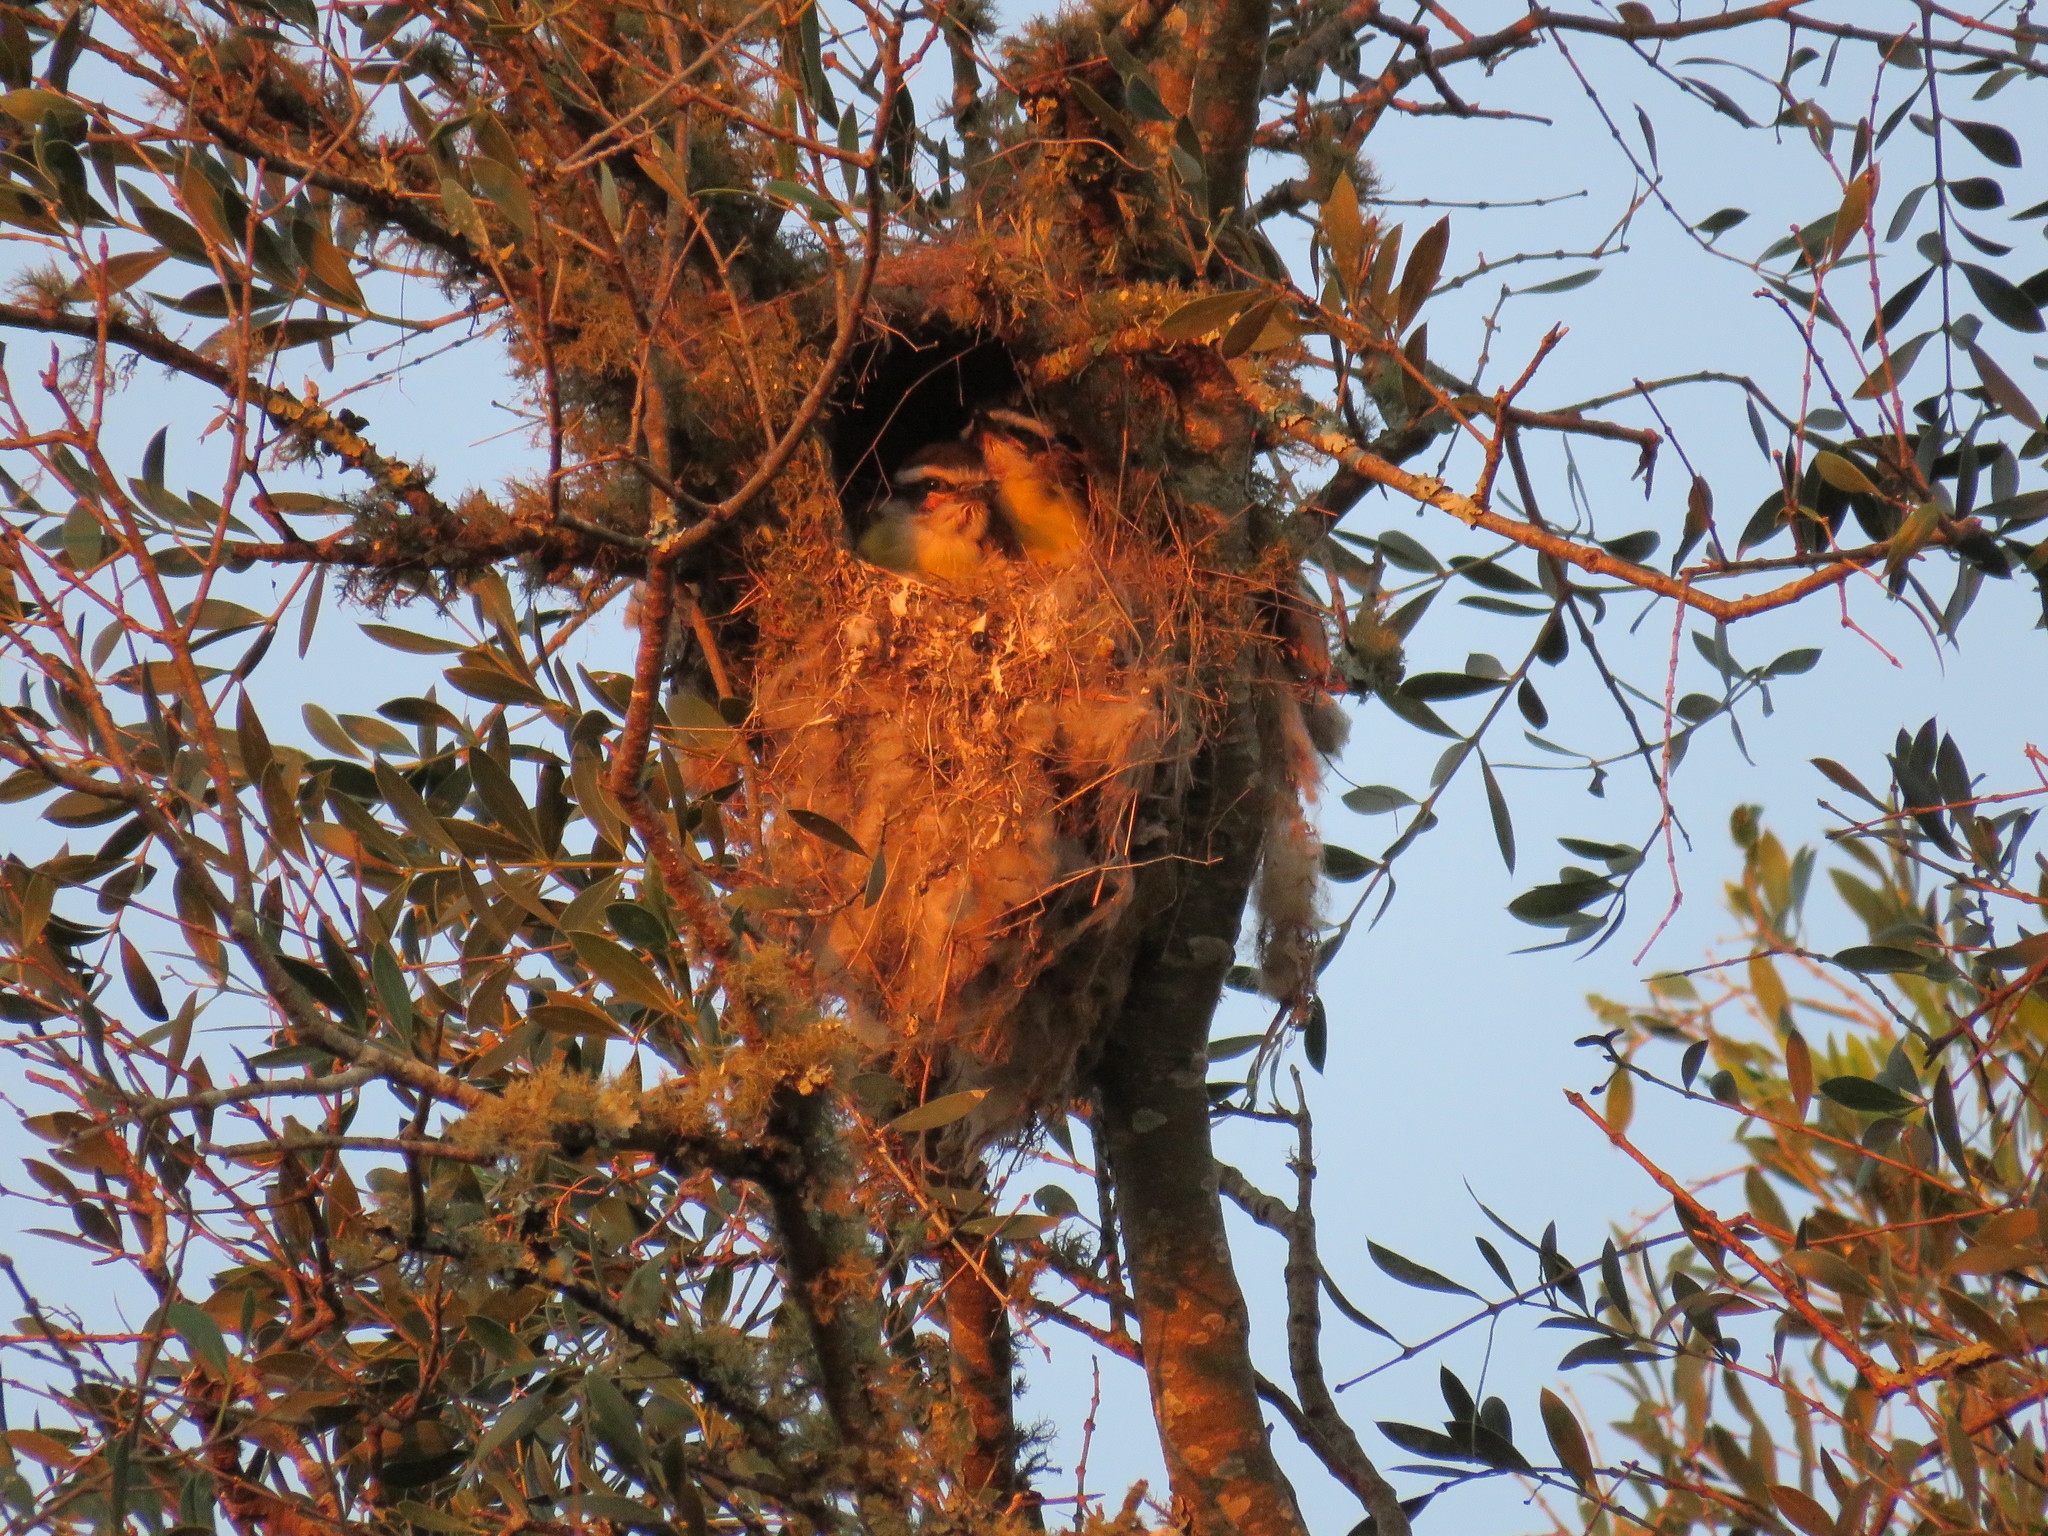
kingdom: Animalia
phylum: Chordata
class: Aves
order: Passeriformes
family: Tyrannidae
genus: Pitangus
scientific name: Pitangus sulphuratus
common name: Great kiskadee
